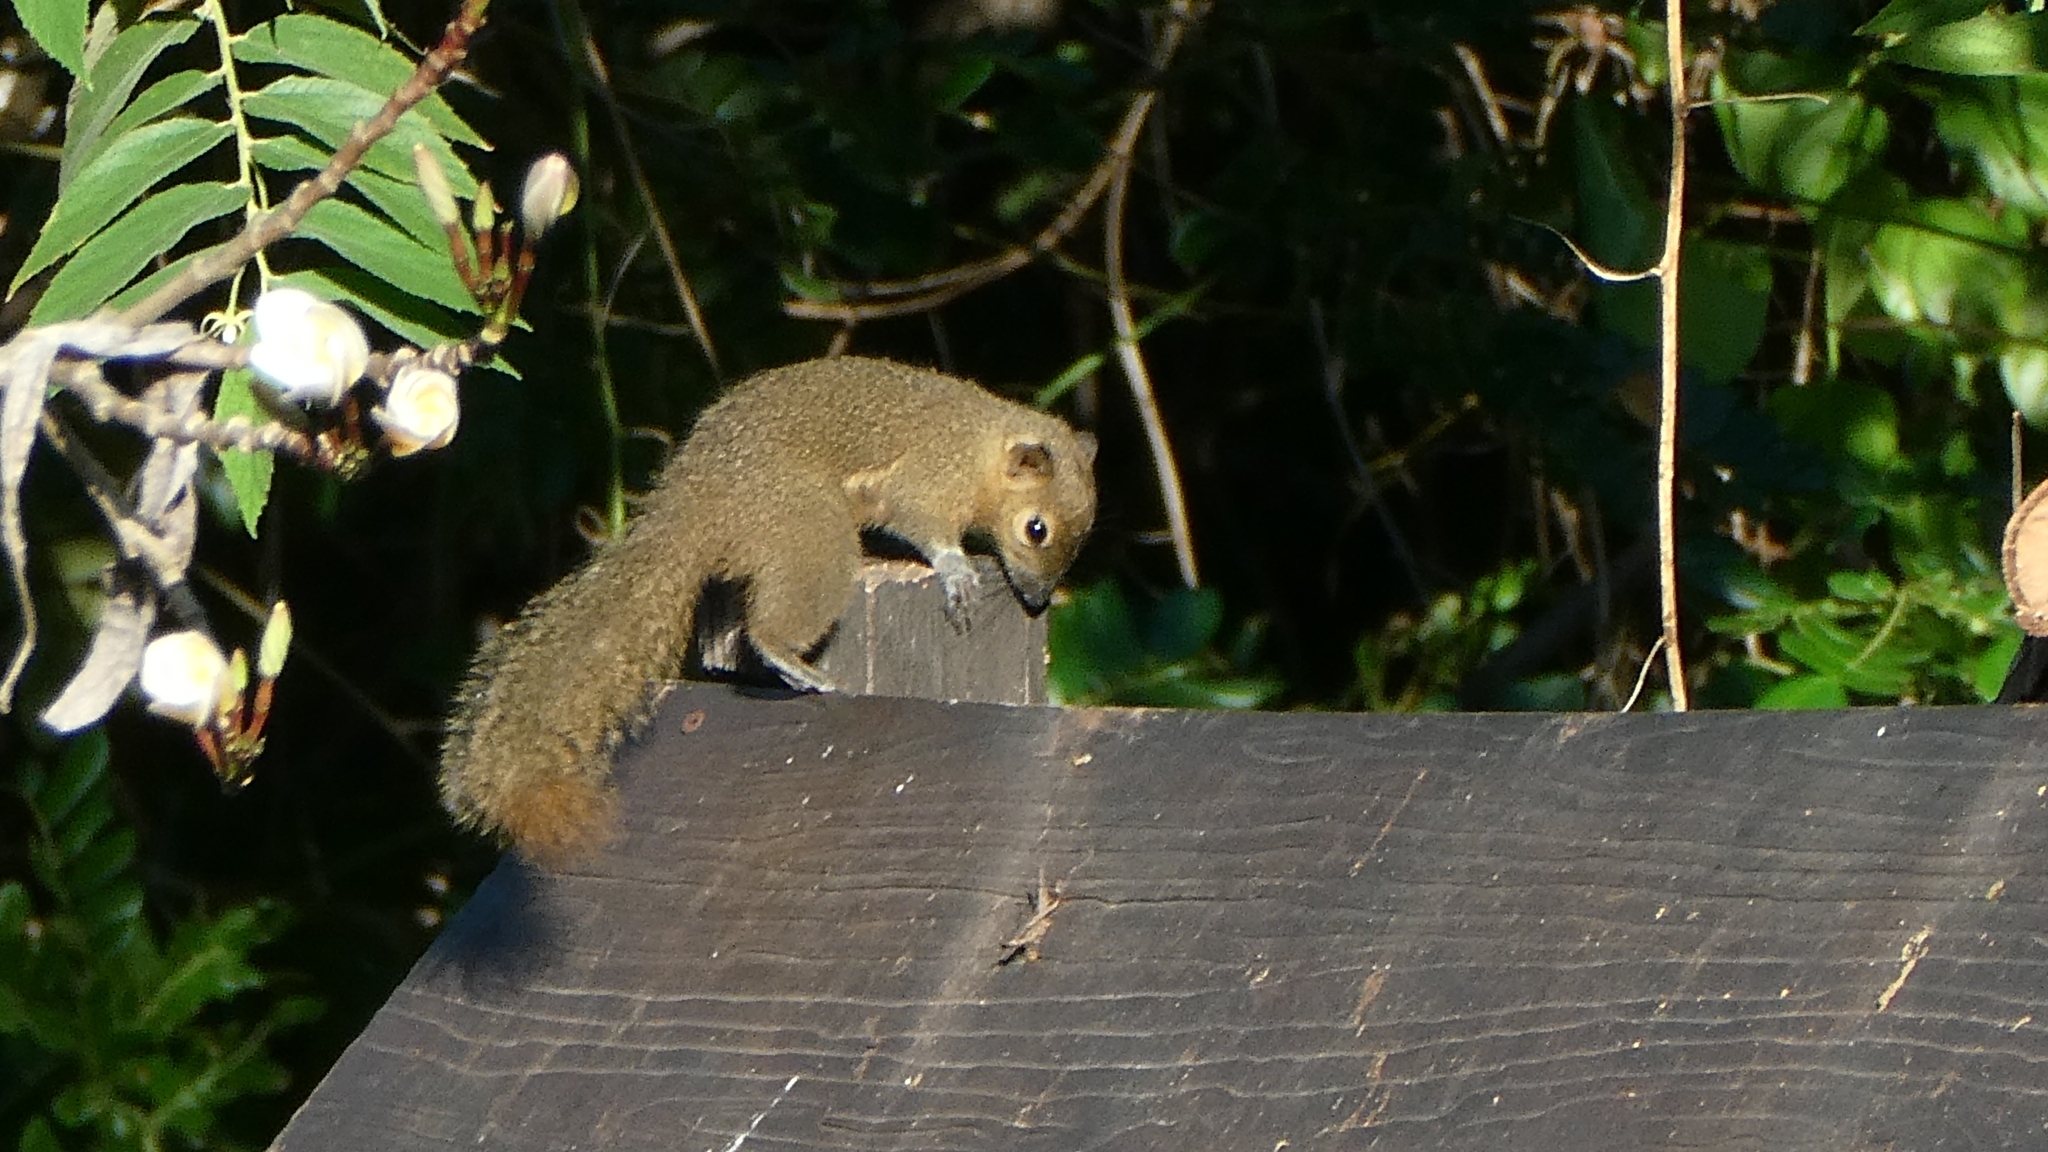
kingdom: Animalia
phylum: Chordata
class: Mammalia
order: Rodentia
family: Sciuridae
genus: Callosciurus
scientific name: Callosciurus notatus
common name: Plantain squirrel
